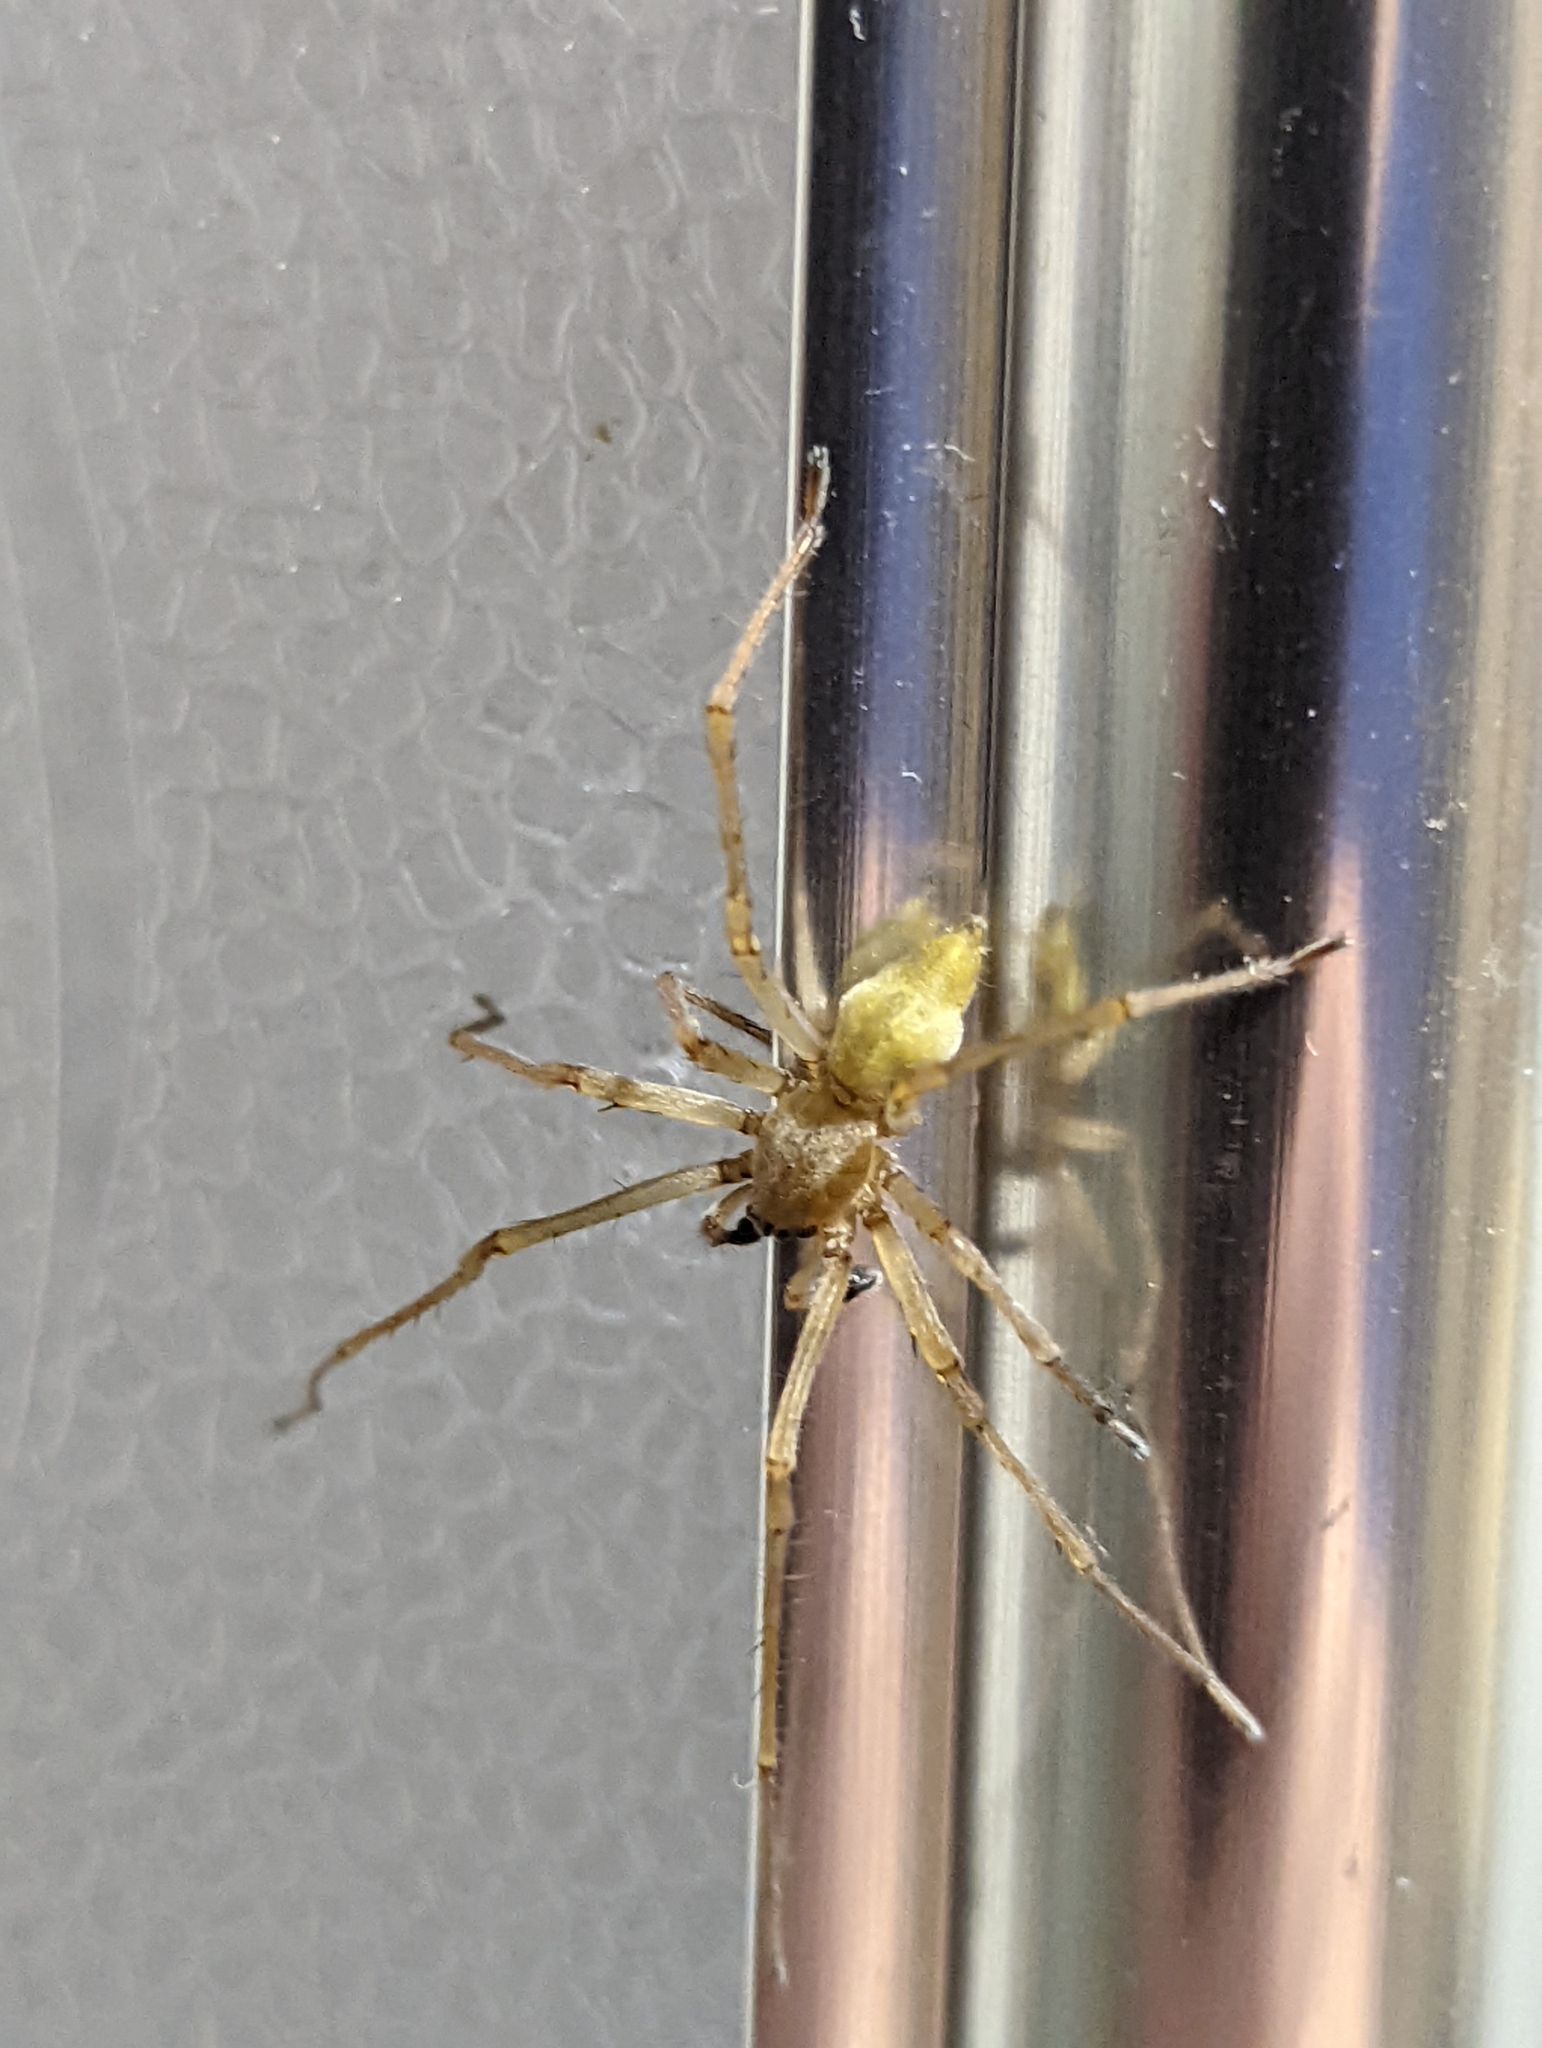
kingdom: Animalia
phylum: Arthropoda
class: Arachnida
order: Araneae
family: Cheiracanthiidae
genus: Cheiracanthium
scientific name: Cheiracanthium mildei
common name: Northern yellow sac spider
